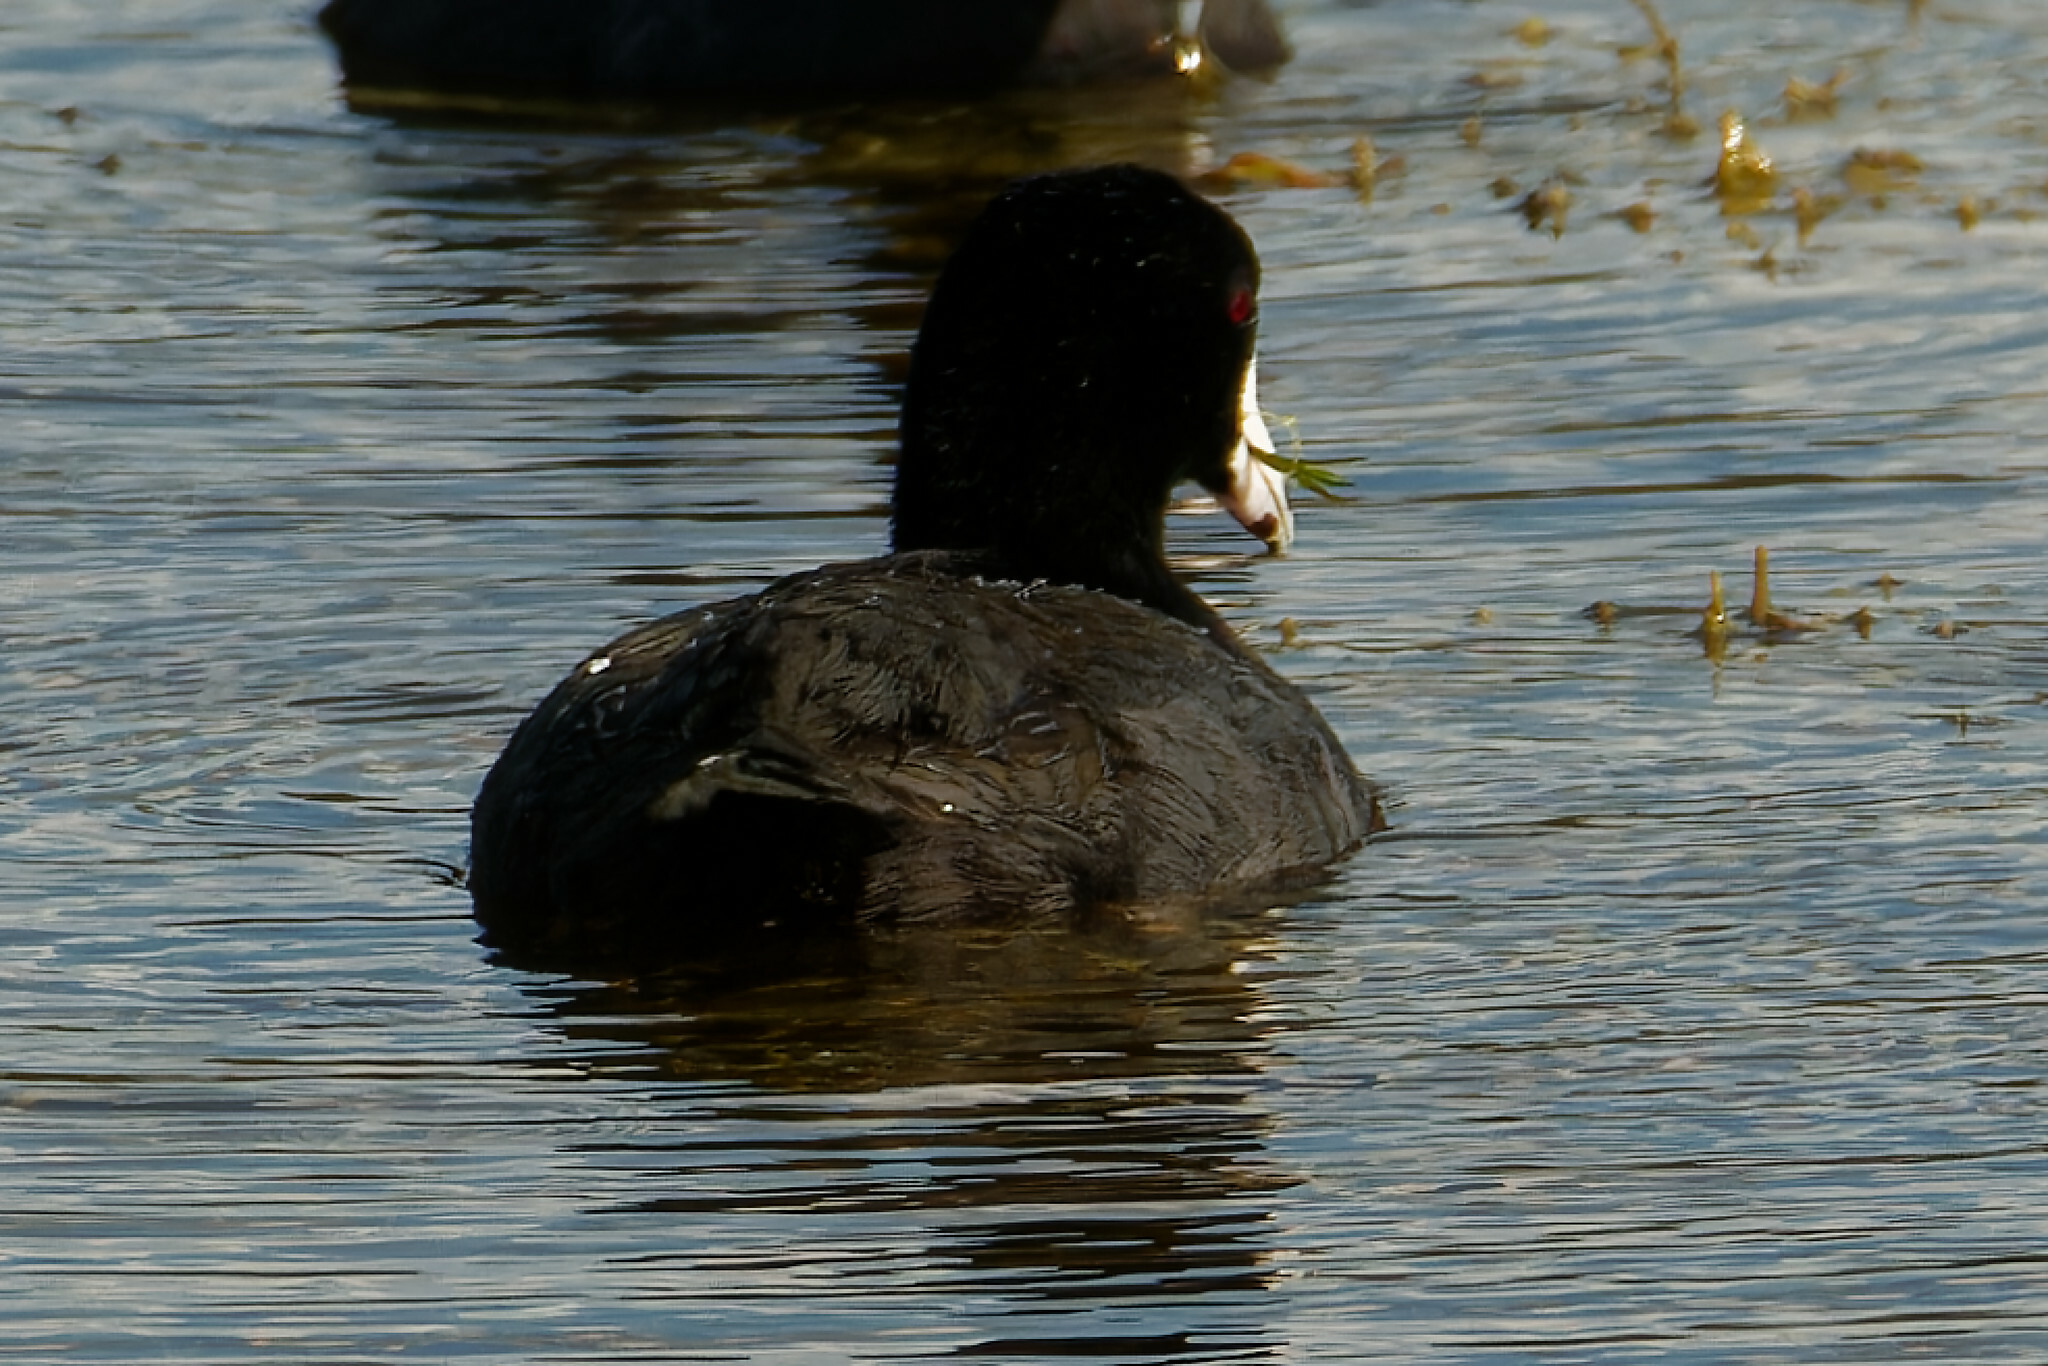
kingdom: Animalia
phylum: Chordata
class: Aves
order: Gruiformes
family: Rallidae
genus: Fulica
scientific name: Fulica americana
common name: American coot
